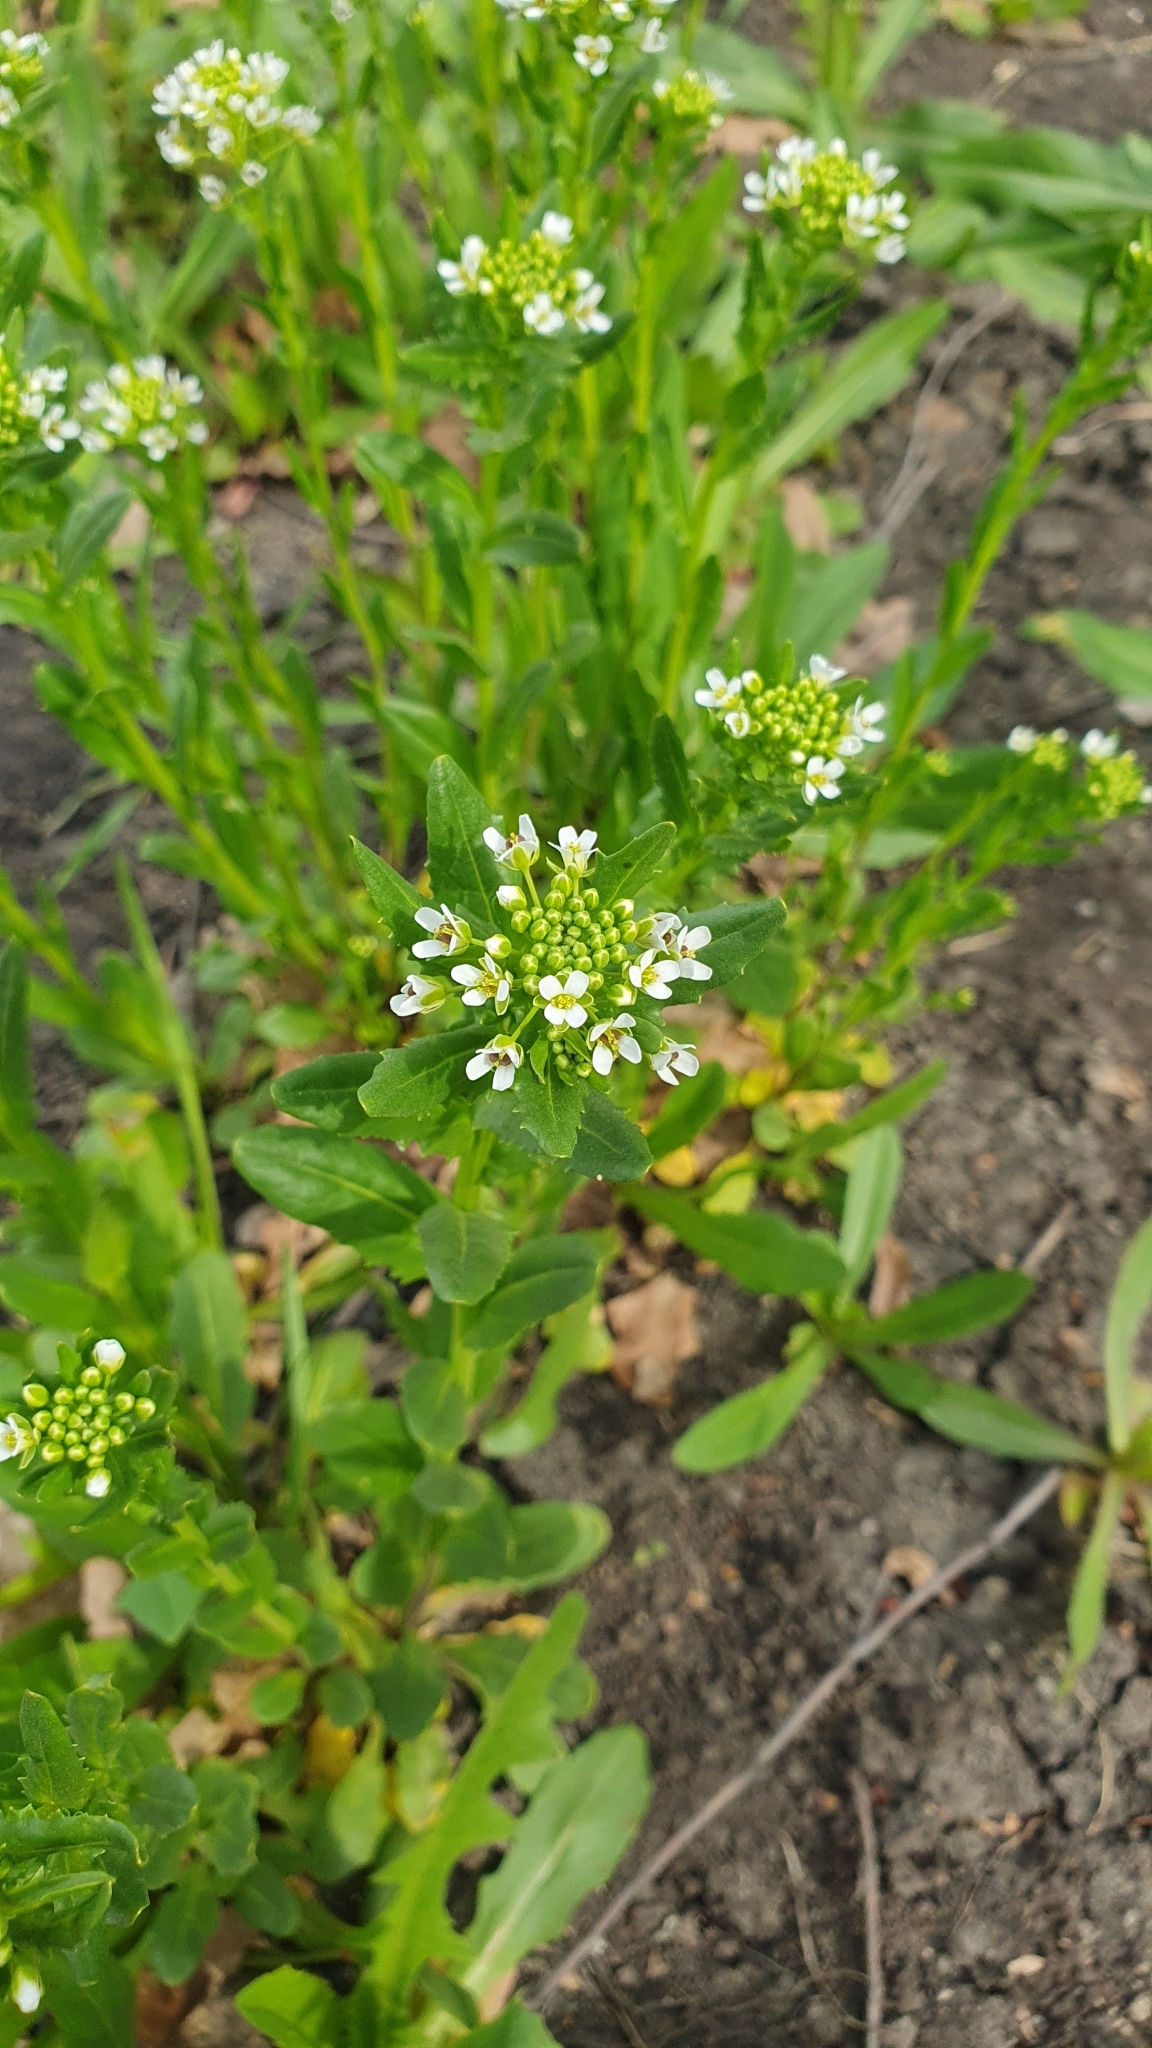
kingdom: Plantae
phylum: Tracheophyta
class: Magnoliopsida
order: Brassicales
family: Brassicaceae
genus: Thlaspi
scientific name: Thlaspi arvense
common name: Field pennycress
